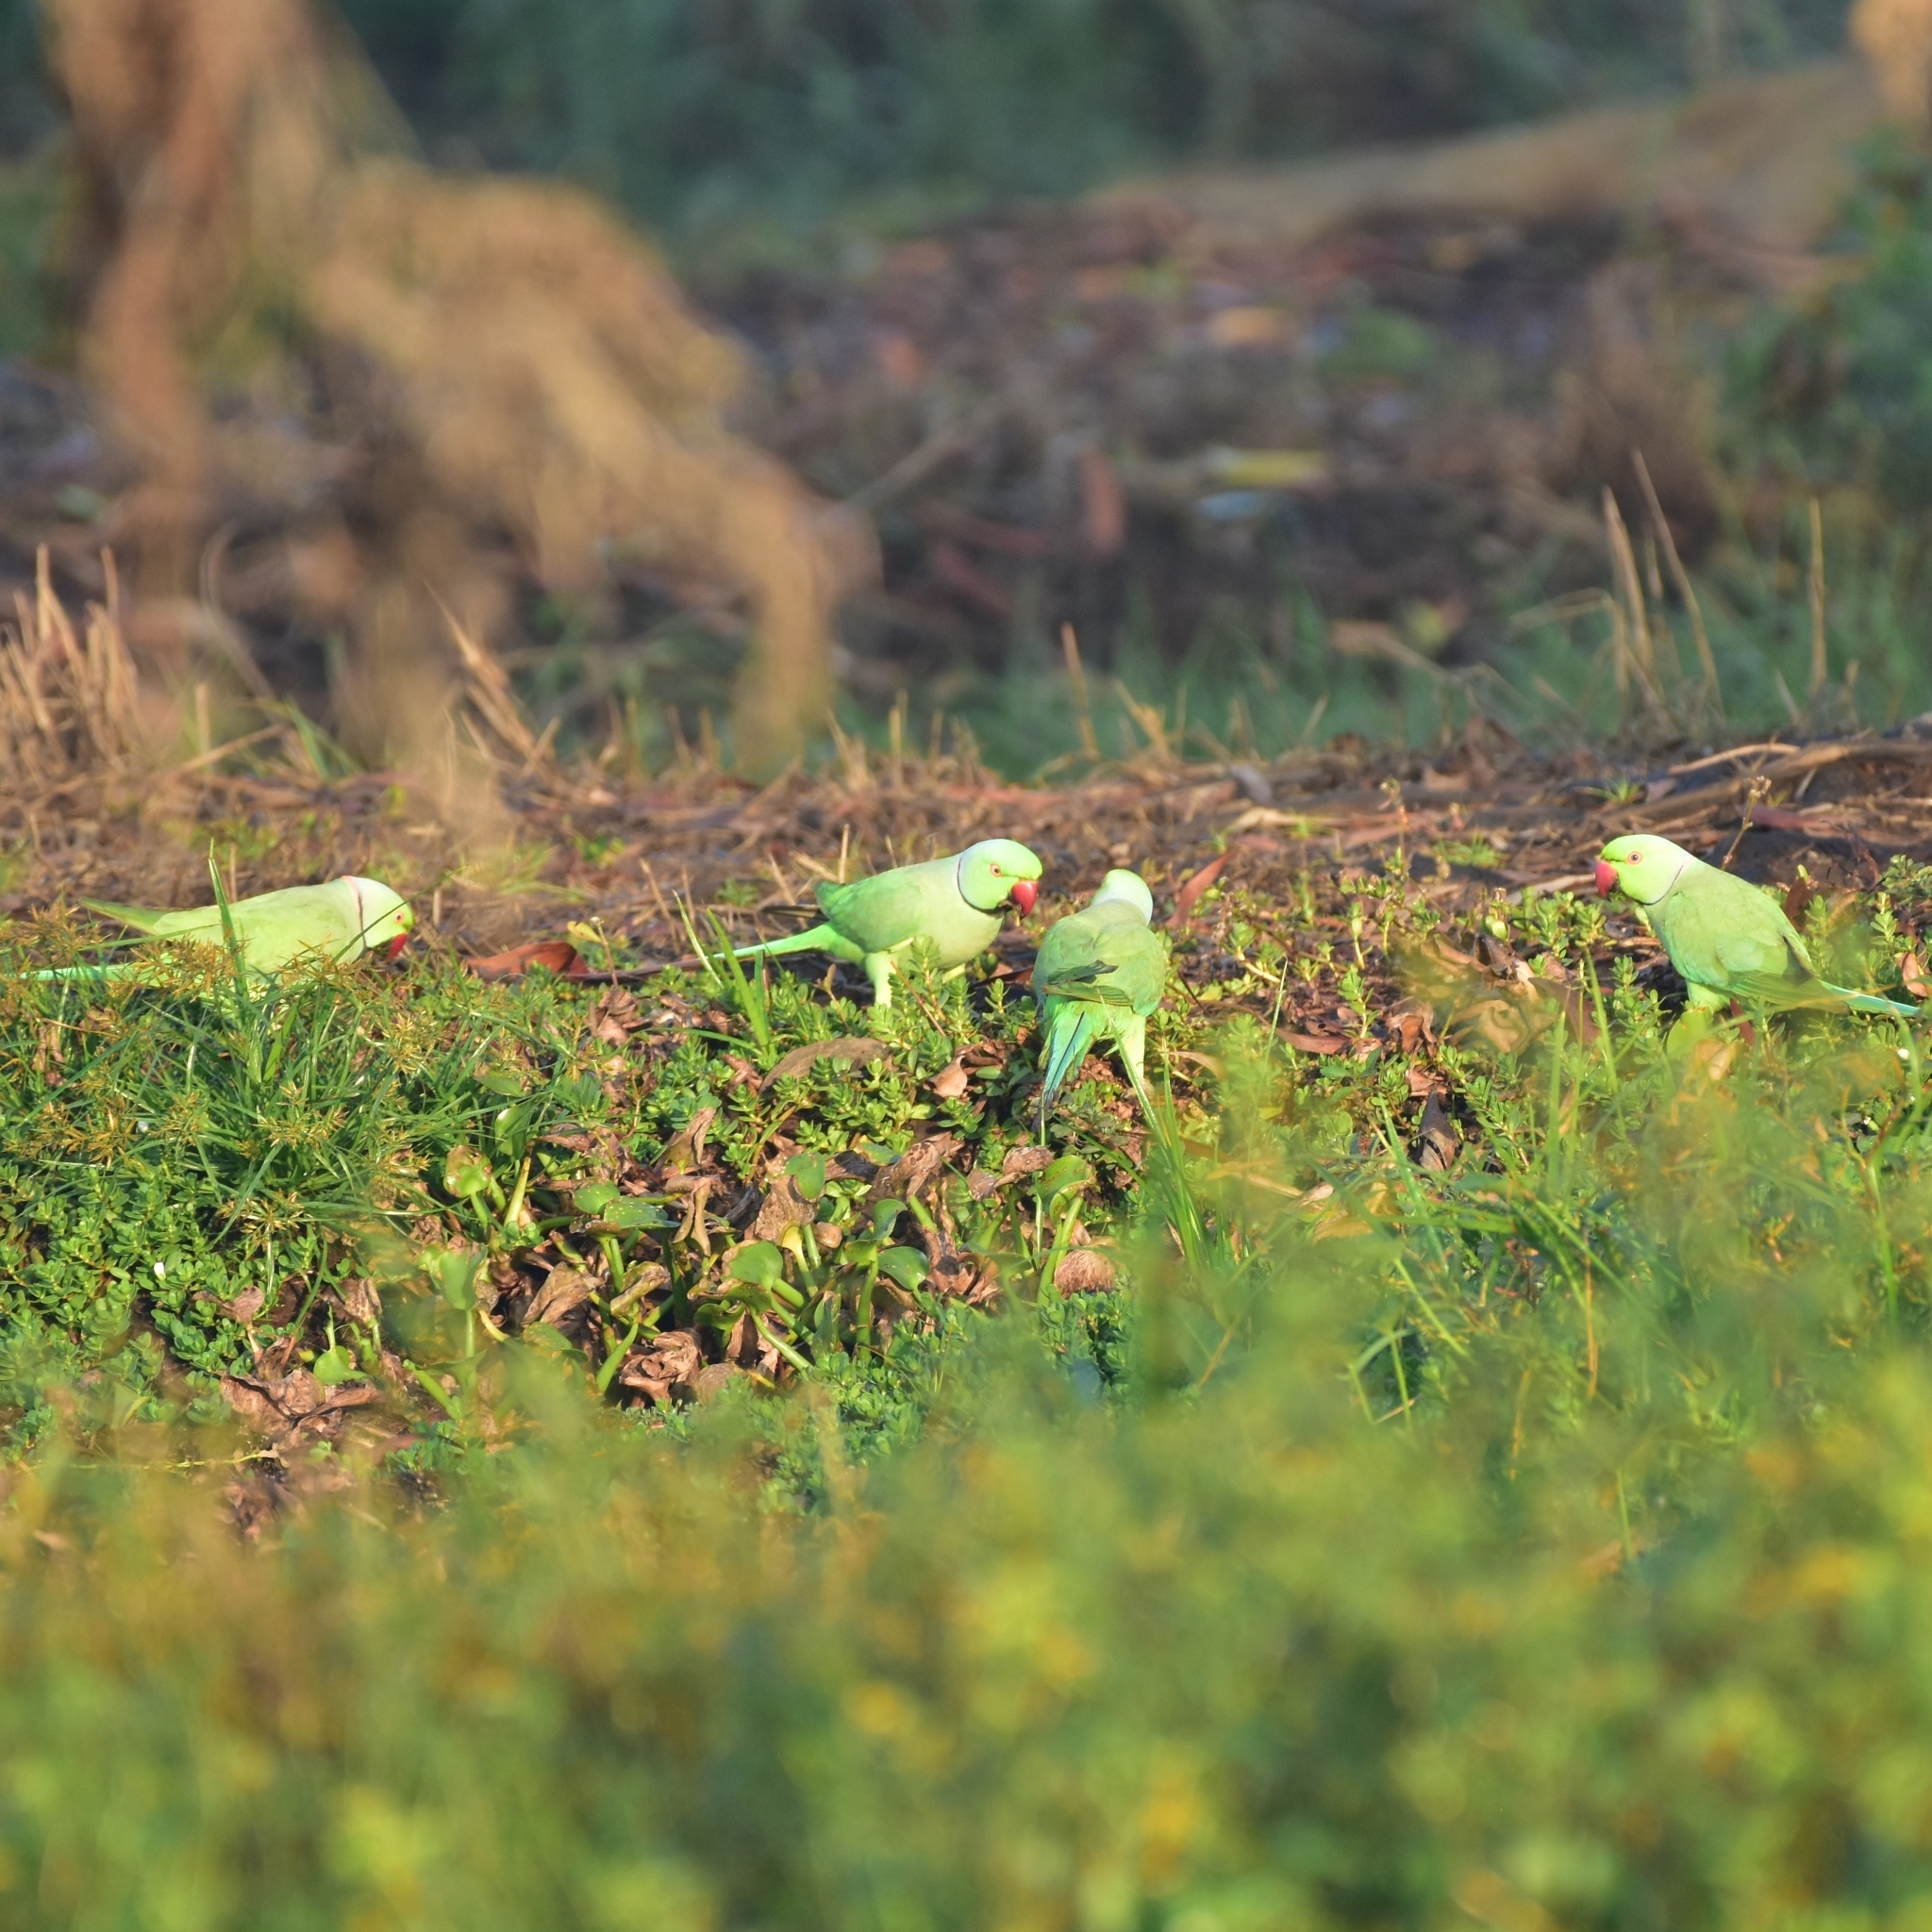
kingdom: Animalia
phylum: Chordata
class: Aves
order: Psittaciformes
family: Psittacidae
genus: Psittacula
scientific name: Psittacula krameri
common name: Rose-ringed parakeet
